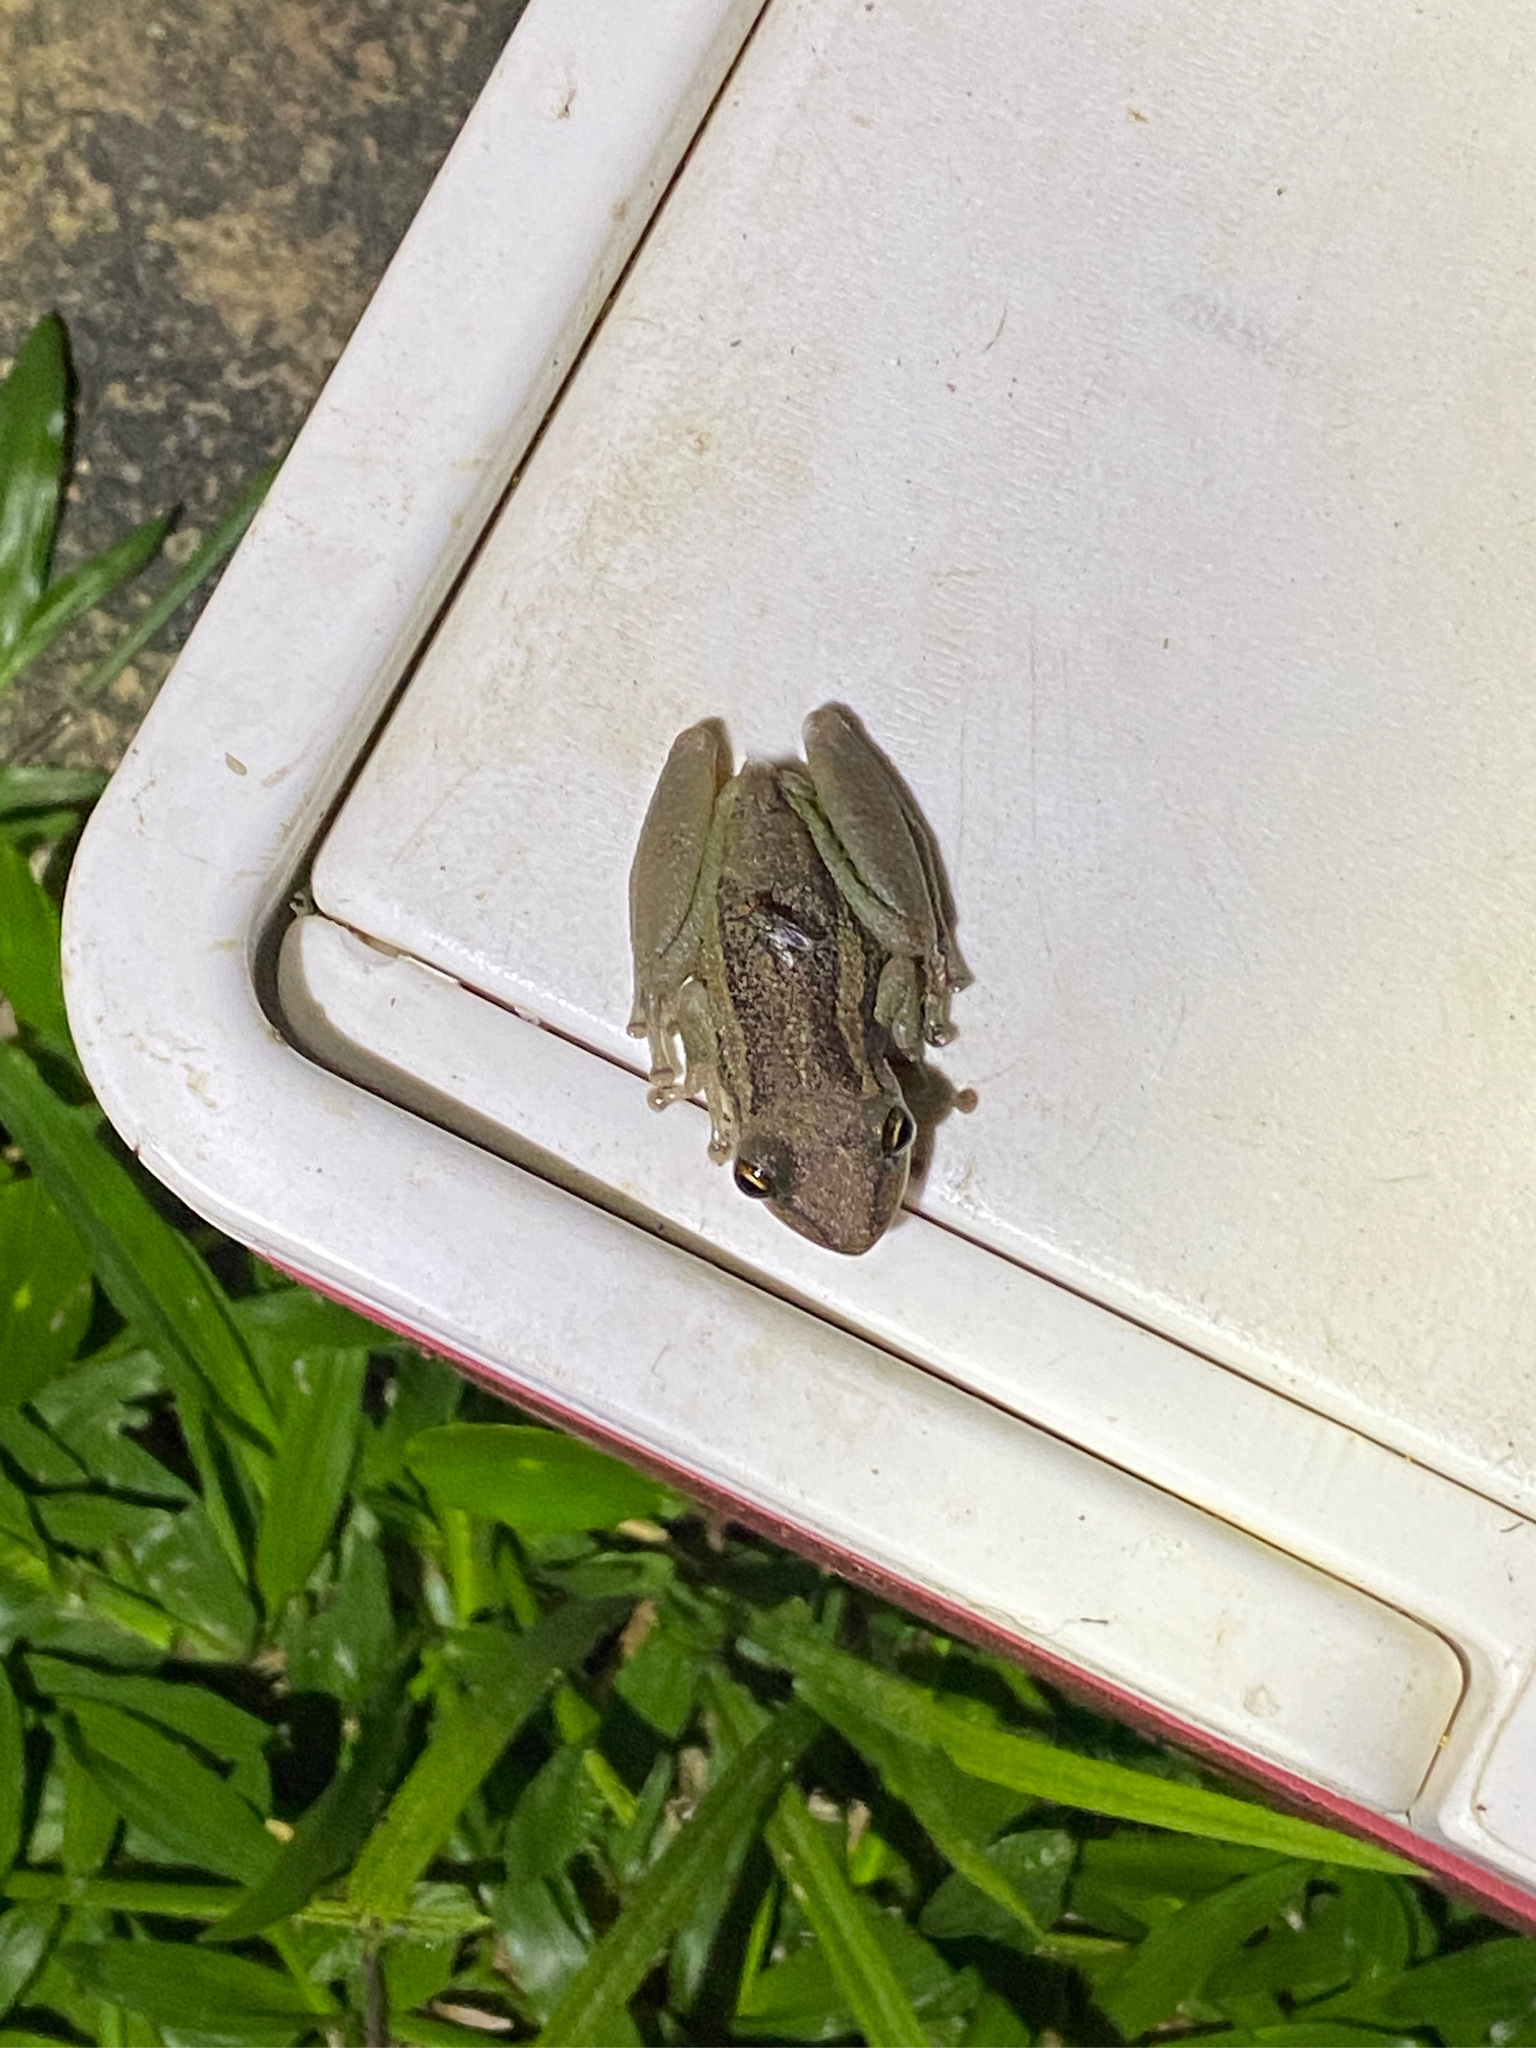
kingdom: Animalia
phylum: Chordata
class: Amphibia
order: Anura
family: Hylidae
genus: Scinax
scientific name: Scinax ruber
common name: Red snouted treefrog
